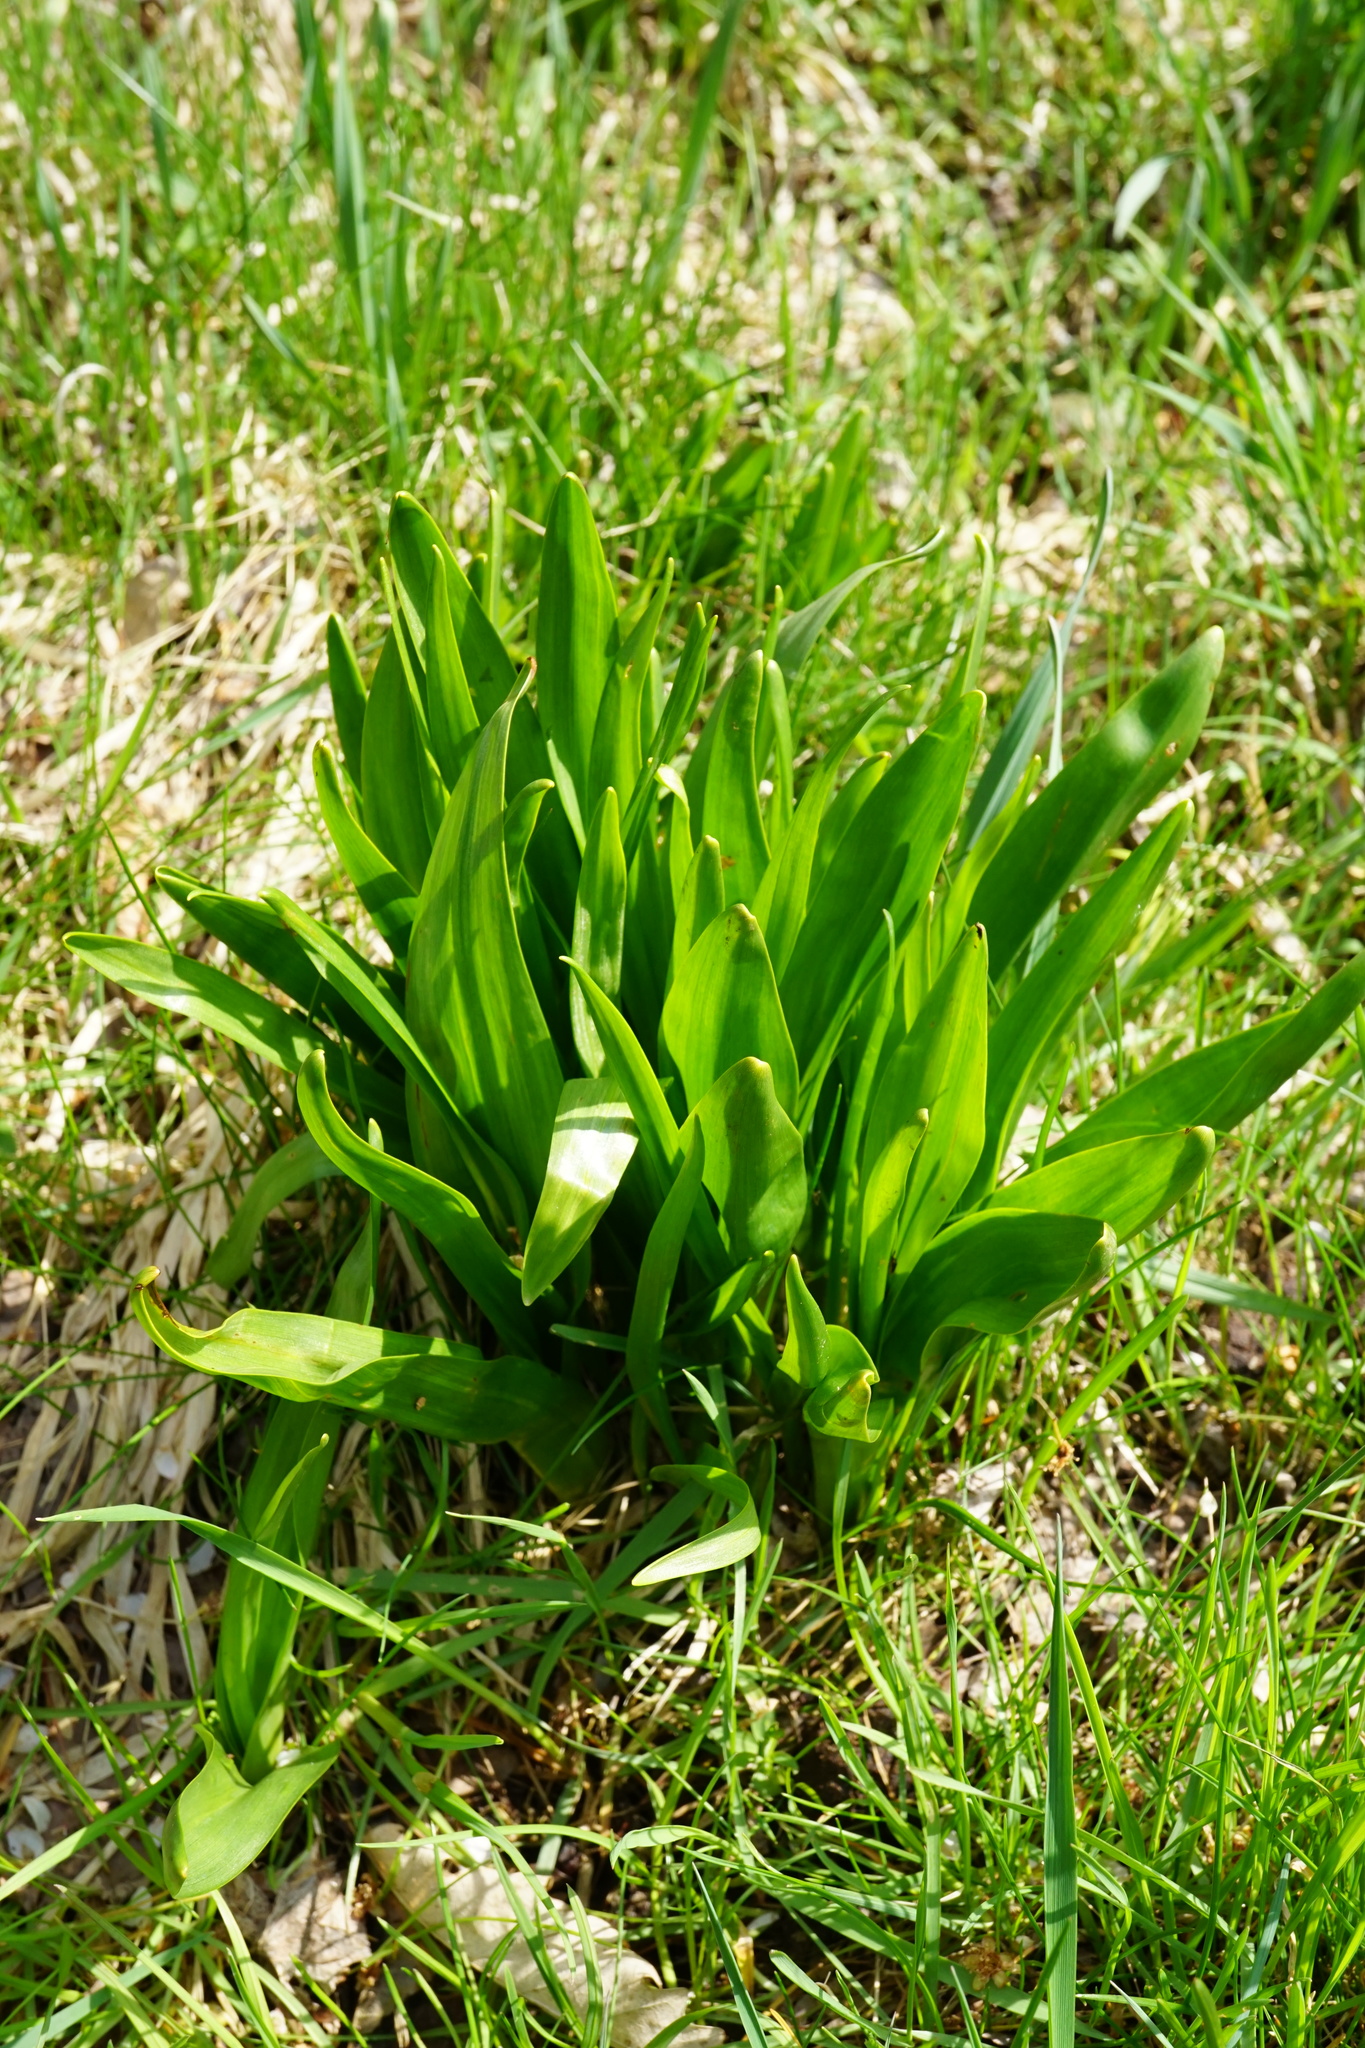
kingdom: Plantae
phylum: Tracheophyta
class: Liliopsida
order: Liliales
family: Colchicaceae
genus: Colchicum
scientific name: Colchicum autumnale
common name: Autumn crocus
